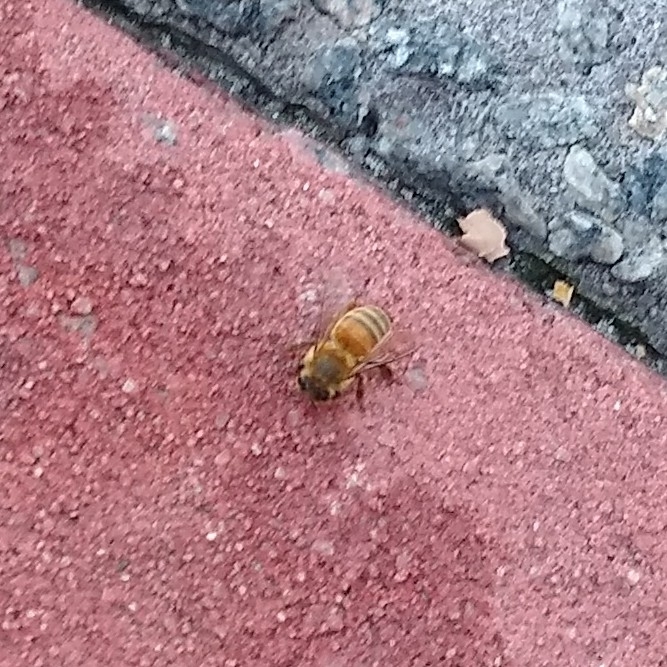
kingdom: Animalia
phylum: Arthropoda
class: Insecta
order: Hymenoptera
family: Apidae
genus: Apis
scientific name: Apis mellifera
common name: Honey bee
